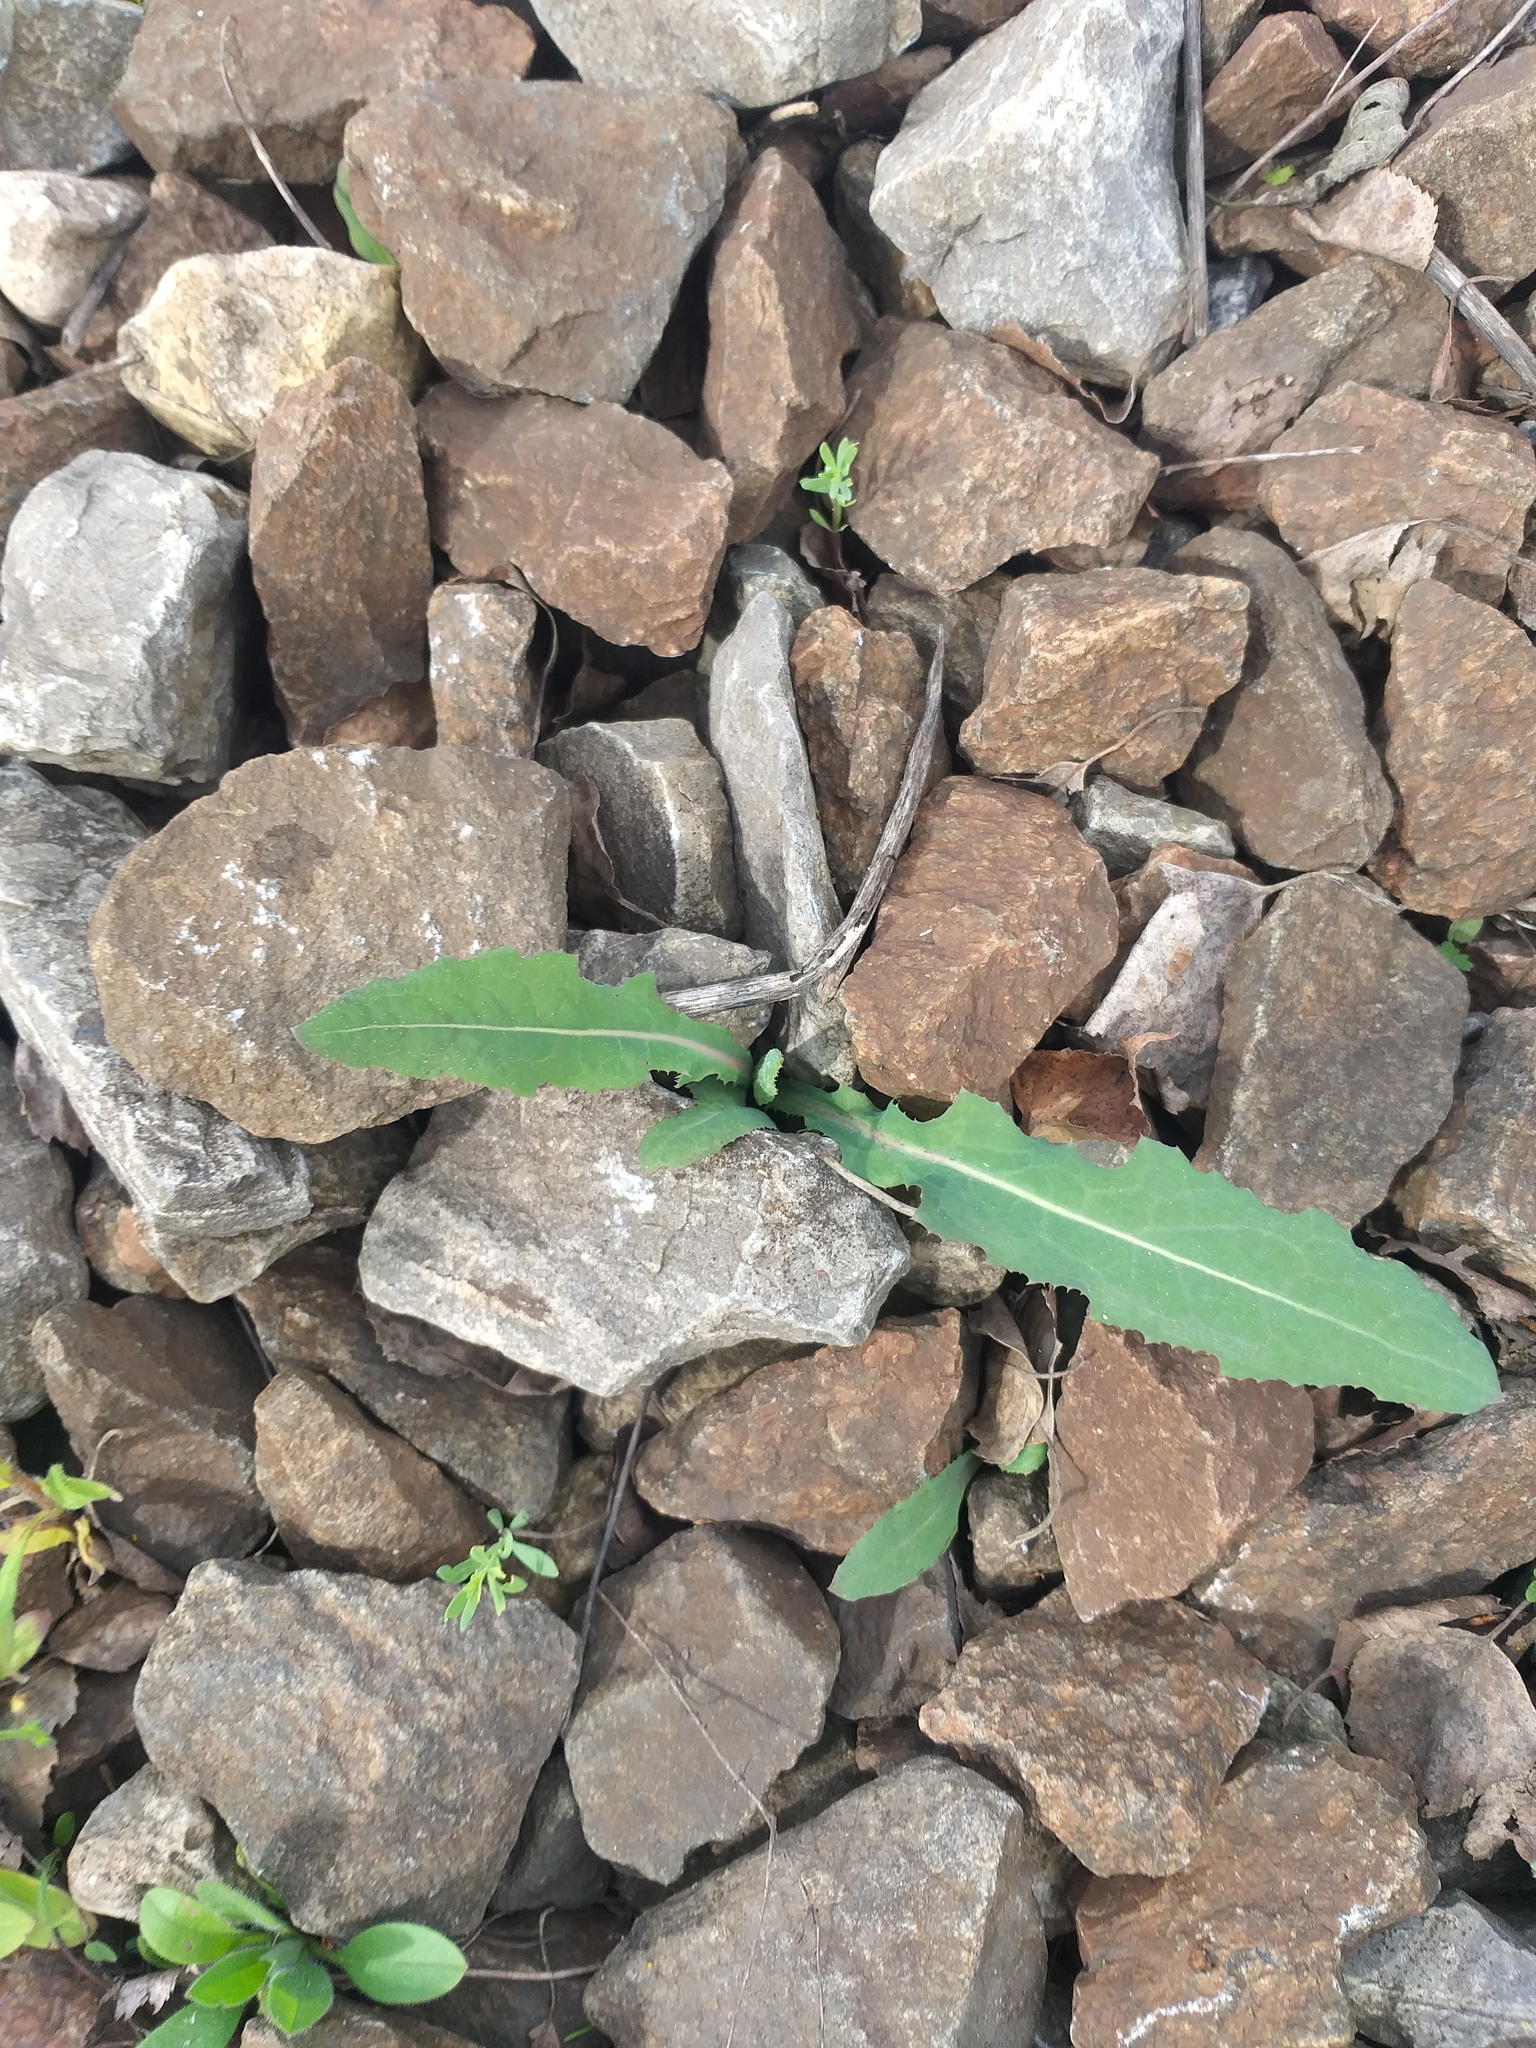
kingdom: Plantae
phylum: Tracheophyta
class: Magnoliopsida
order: Asterales
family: Asteraceae
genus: Sonchus
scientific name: Sonchus arvensis
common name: Perennial sow-thistle
